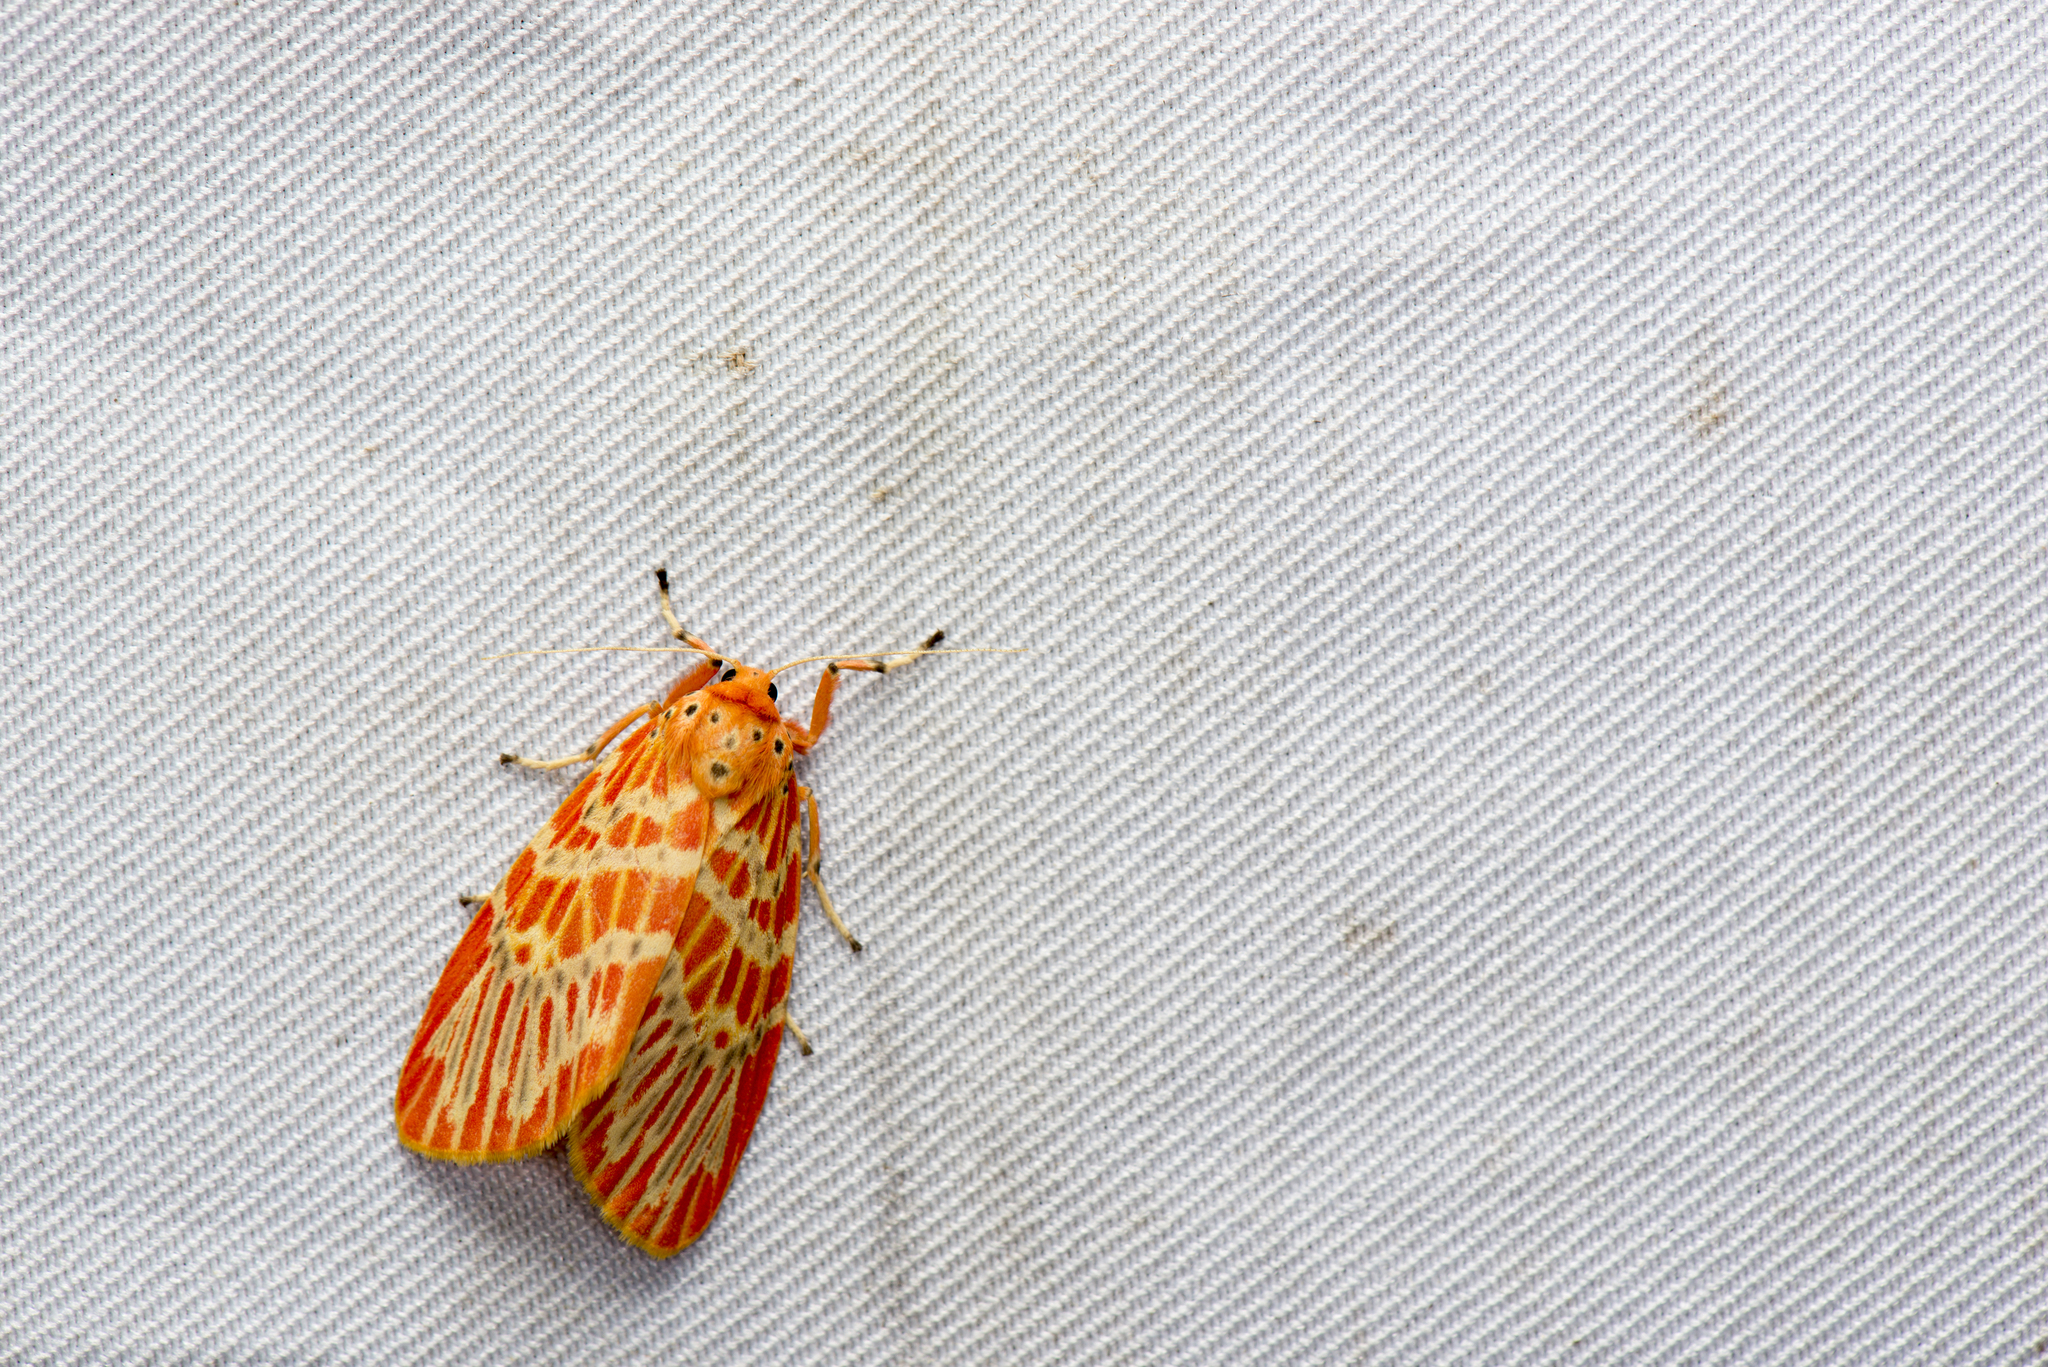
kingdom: Animalia
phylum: Arthropoda
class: Insecta
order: Lepidoptera
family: Erebidae
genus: Barsine
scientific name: Barsine sauteri
